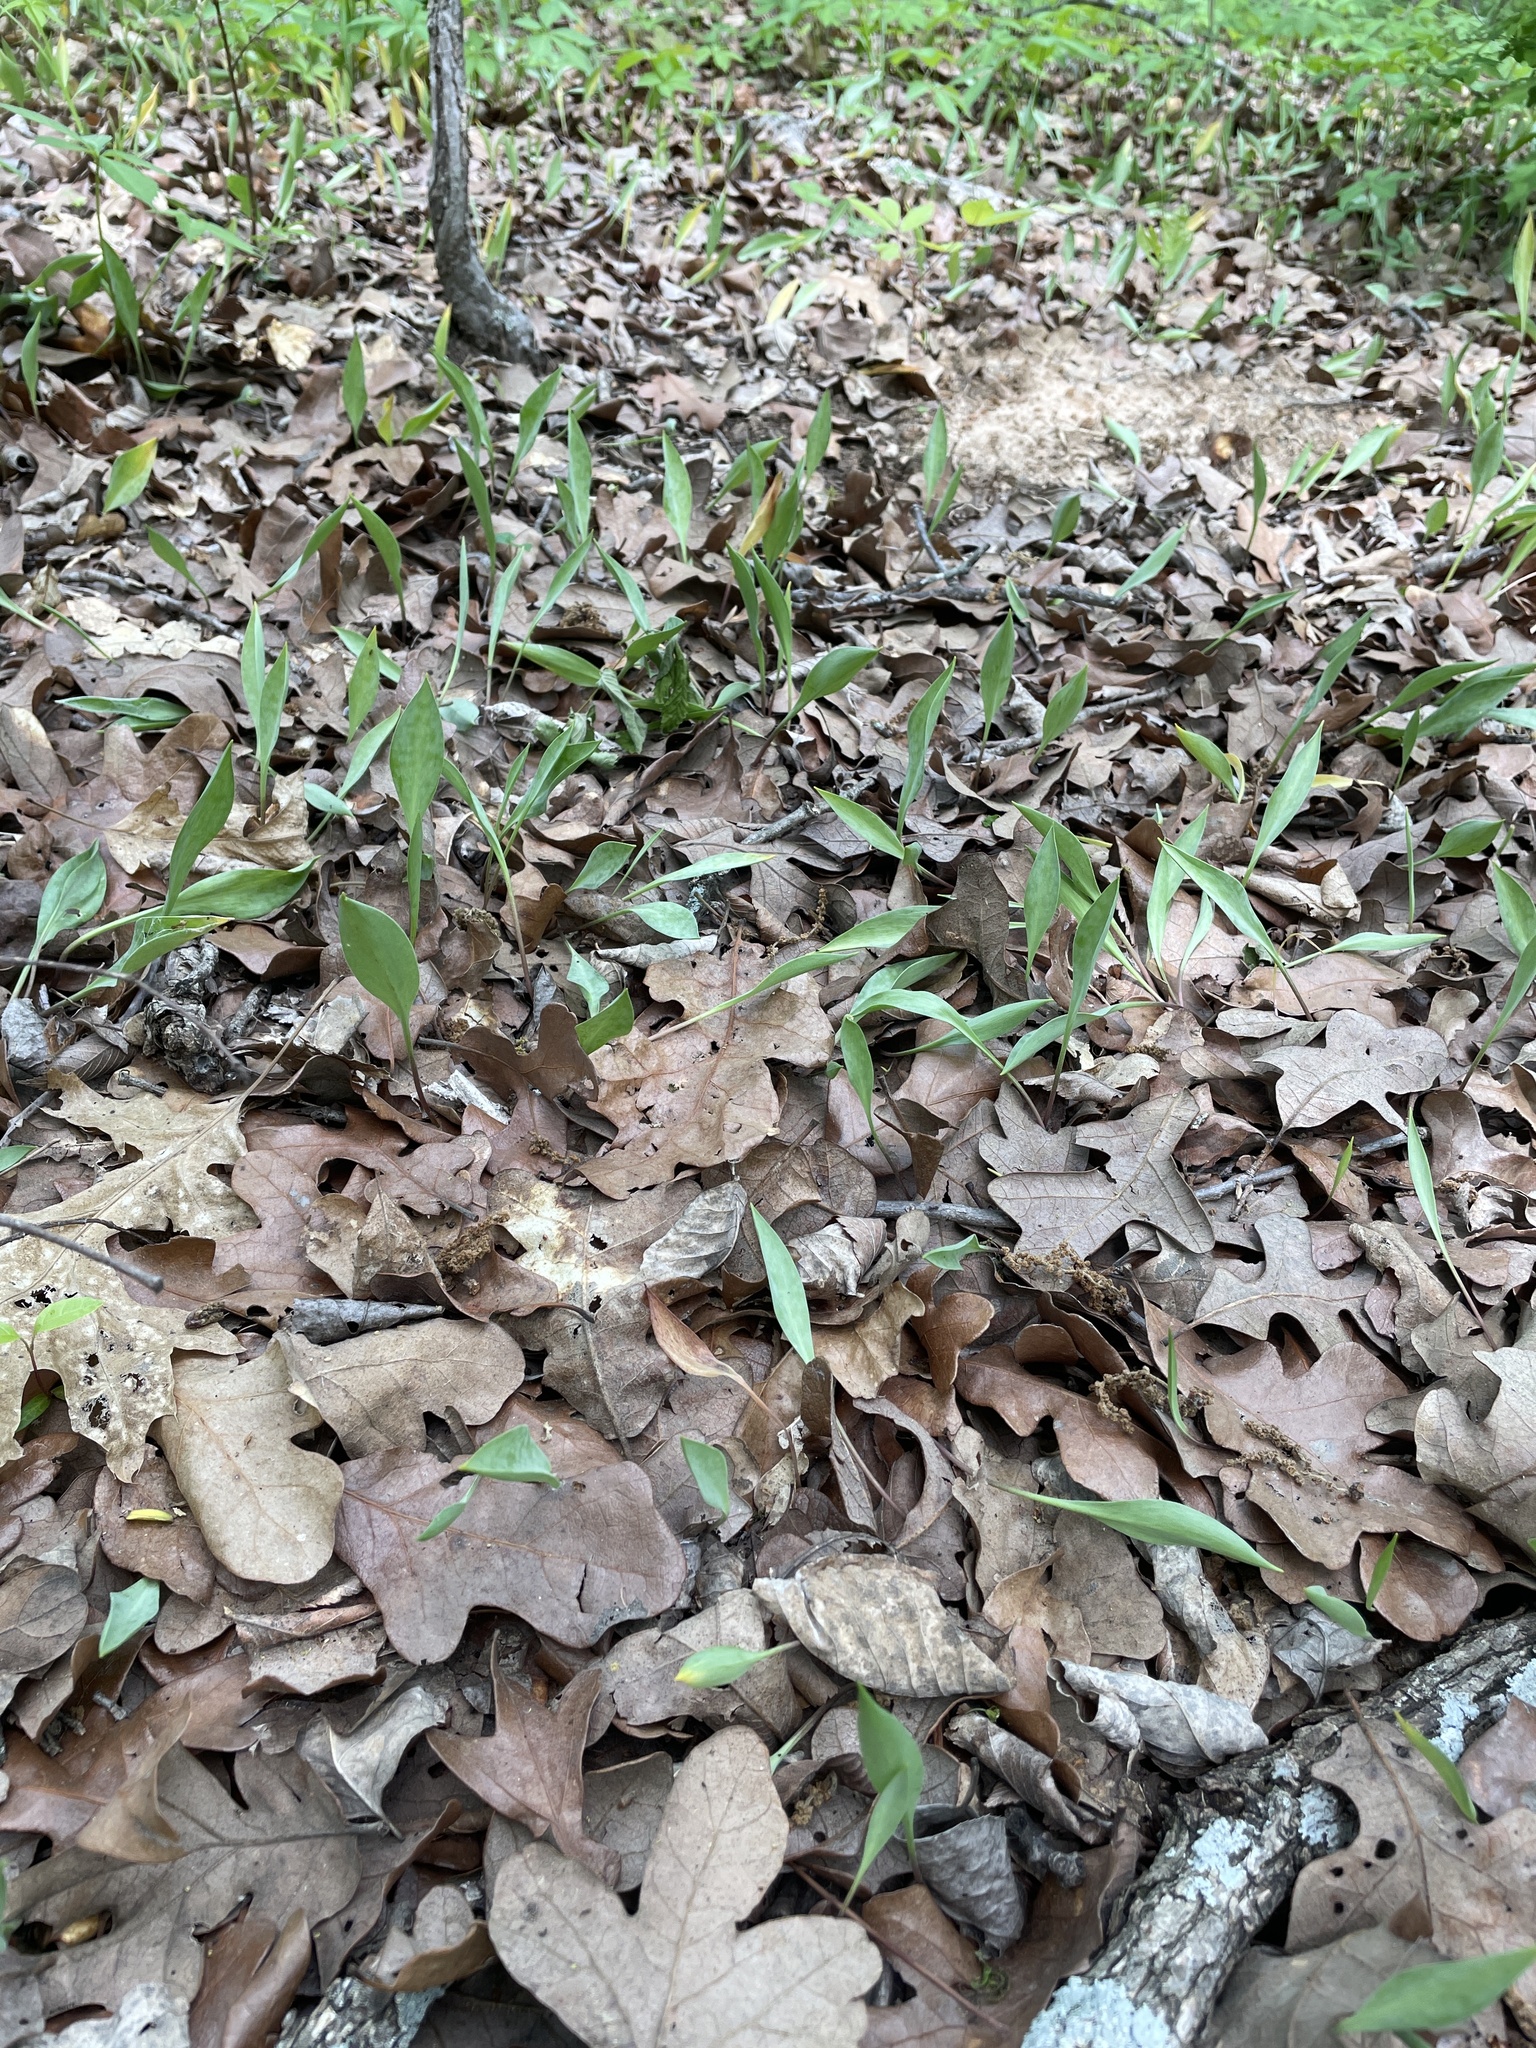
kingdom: Plantae
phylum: Tracheophyta
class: Liliopsida
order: Liliales
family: Liliaceae
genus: Erythronium
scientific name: Erythronium albidum
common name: White trout-lily
